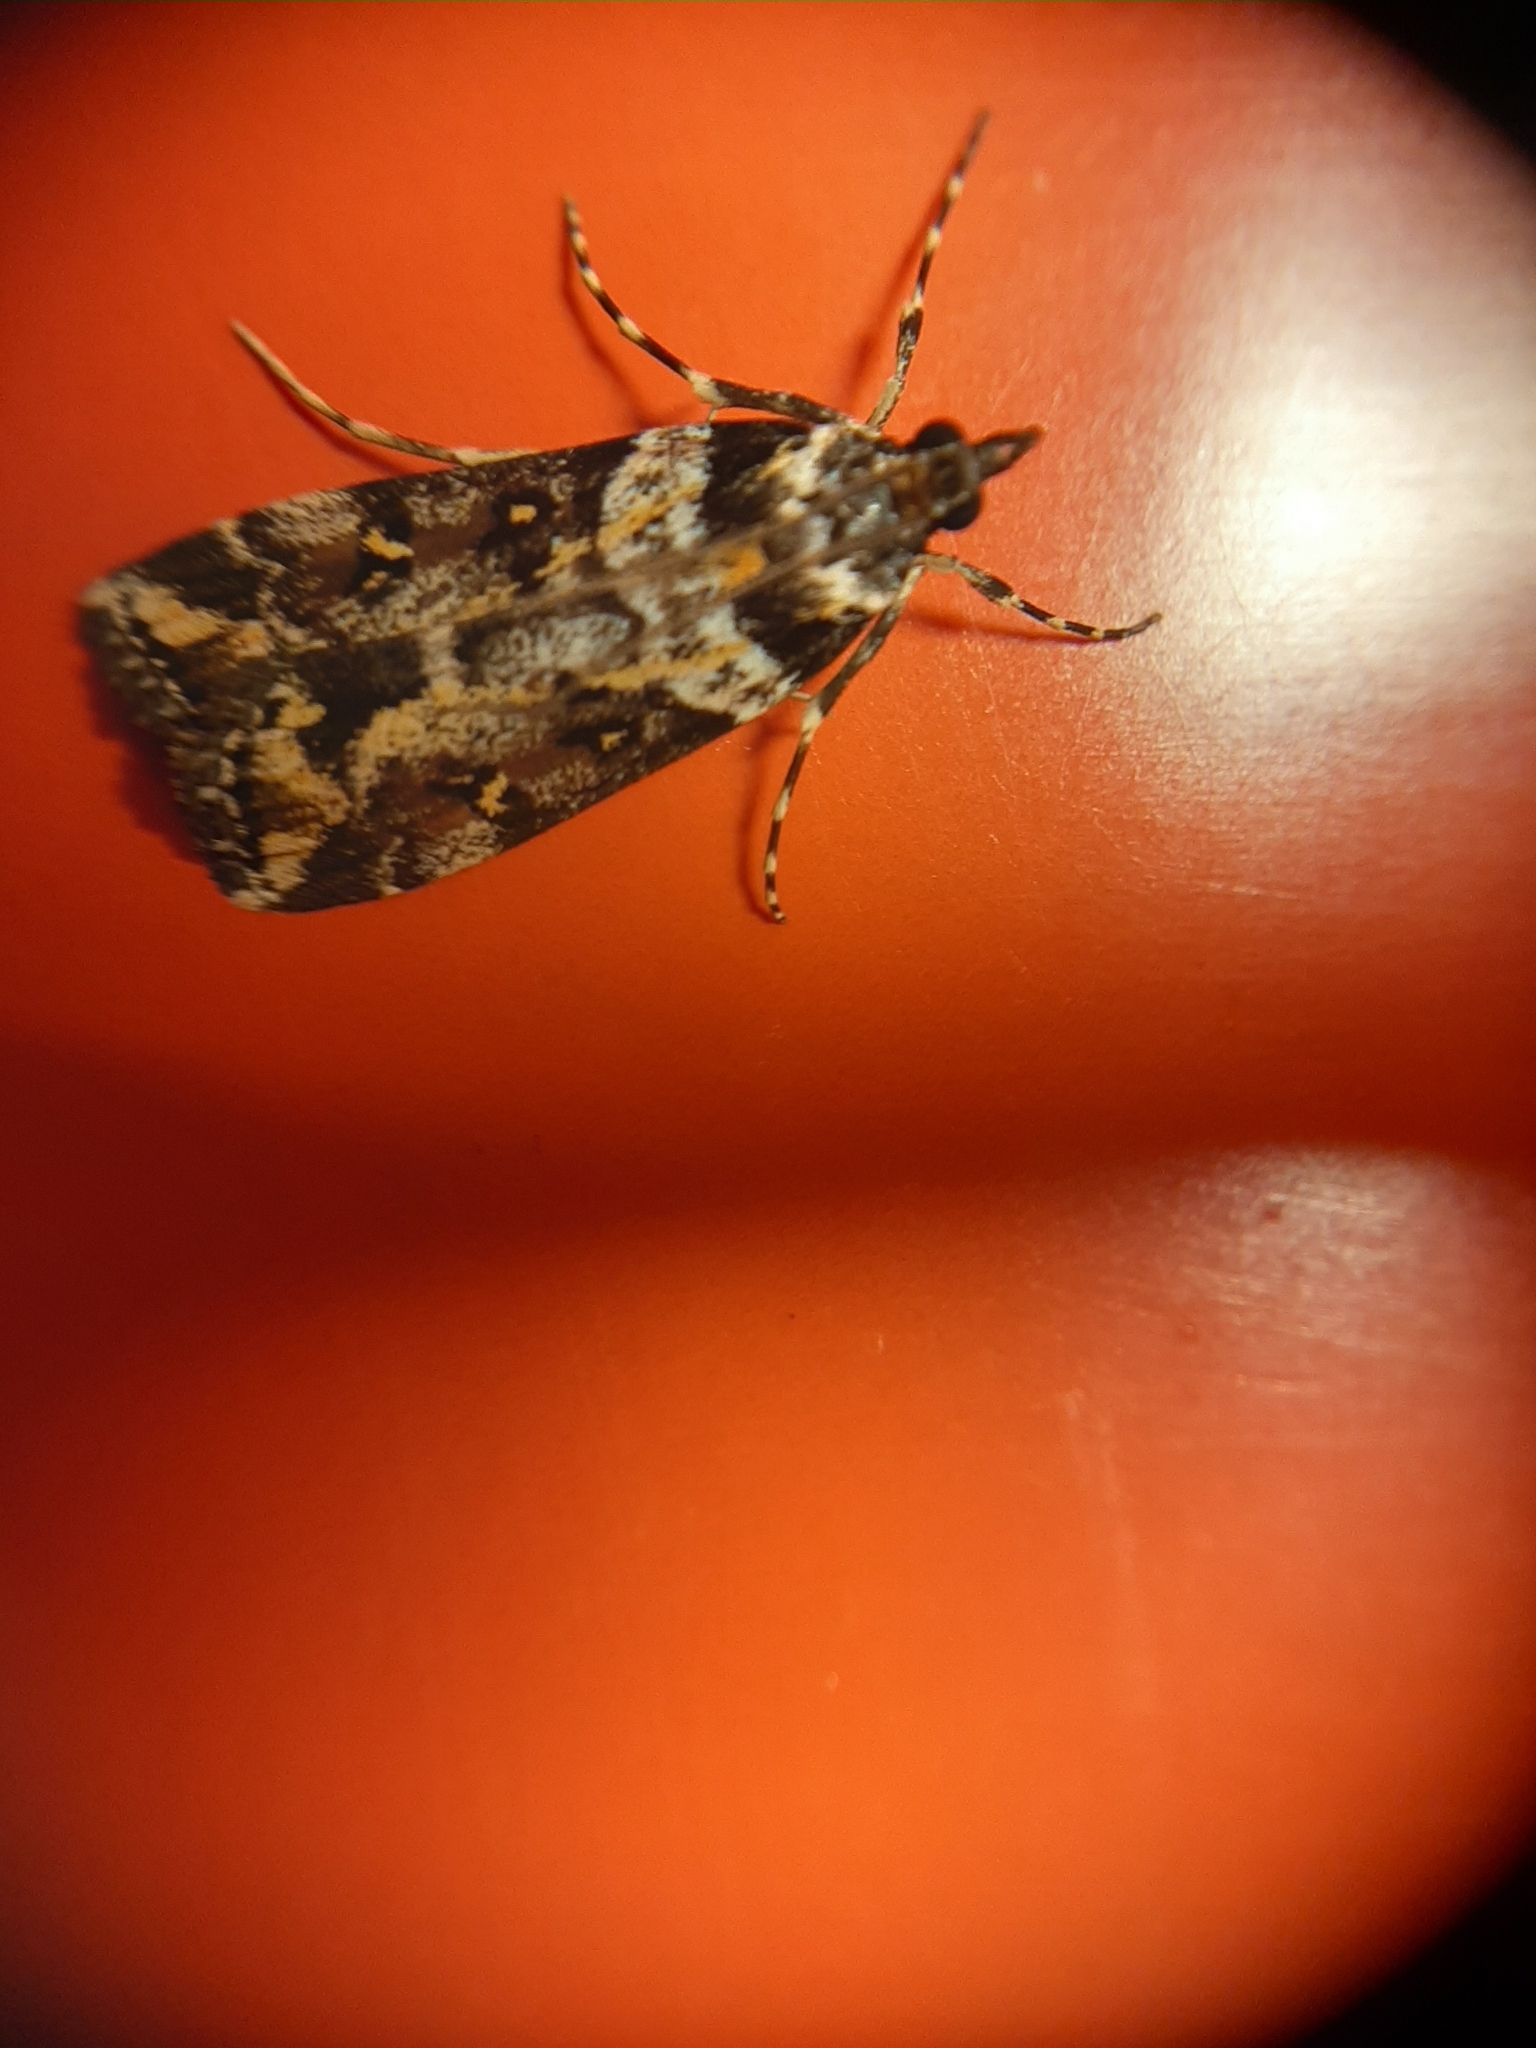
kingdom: Animalia
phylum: Arthropoda
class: Insecta
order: Lepidoptera
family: Crambidae
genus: Eudonia
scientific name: Eudonia diphtheralis
